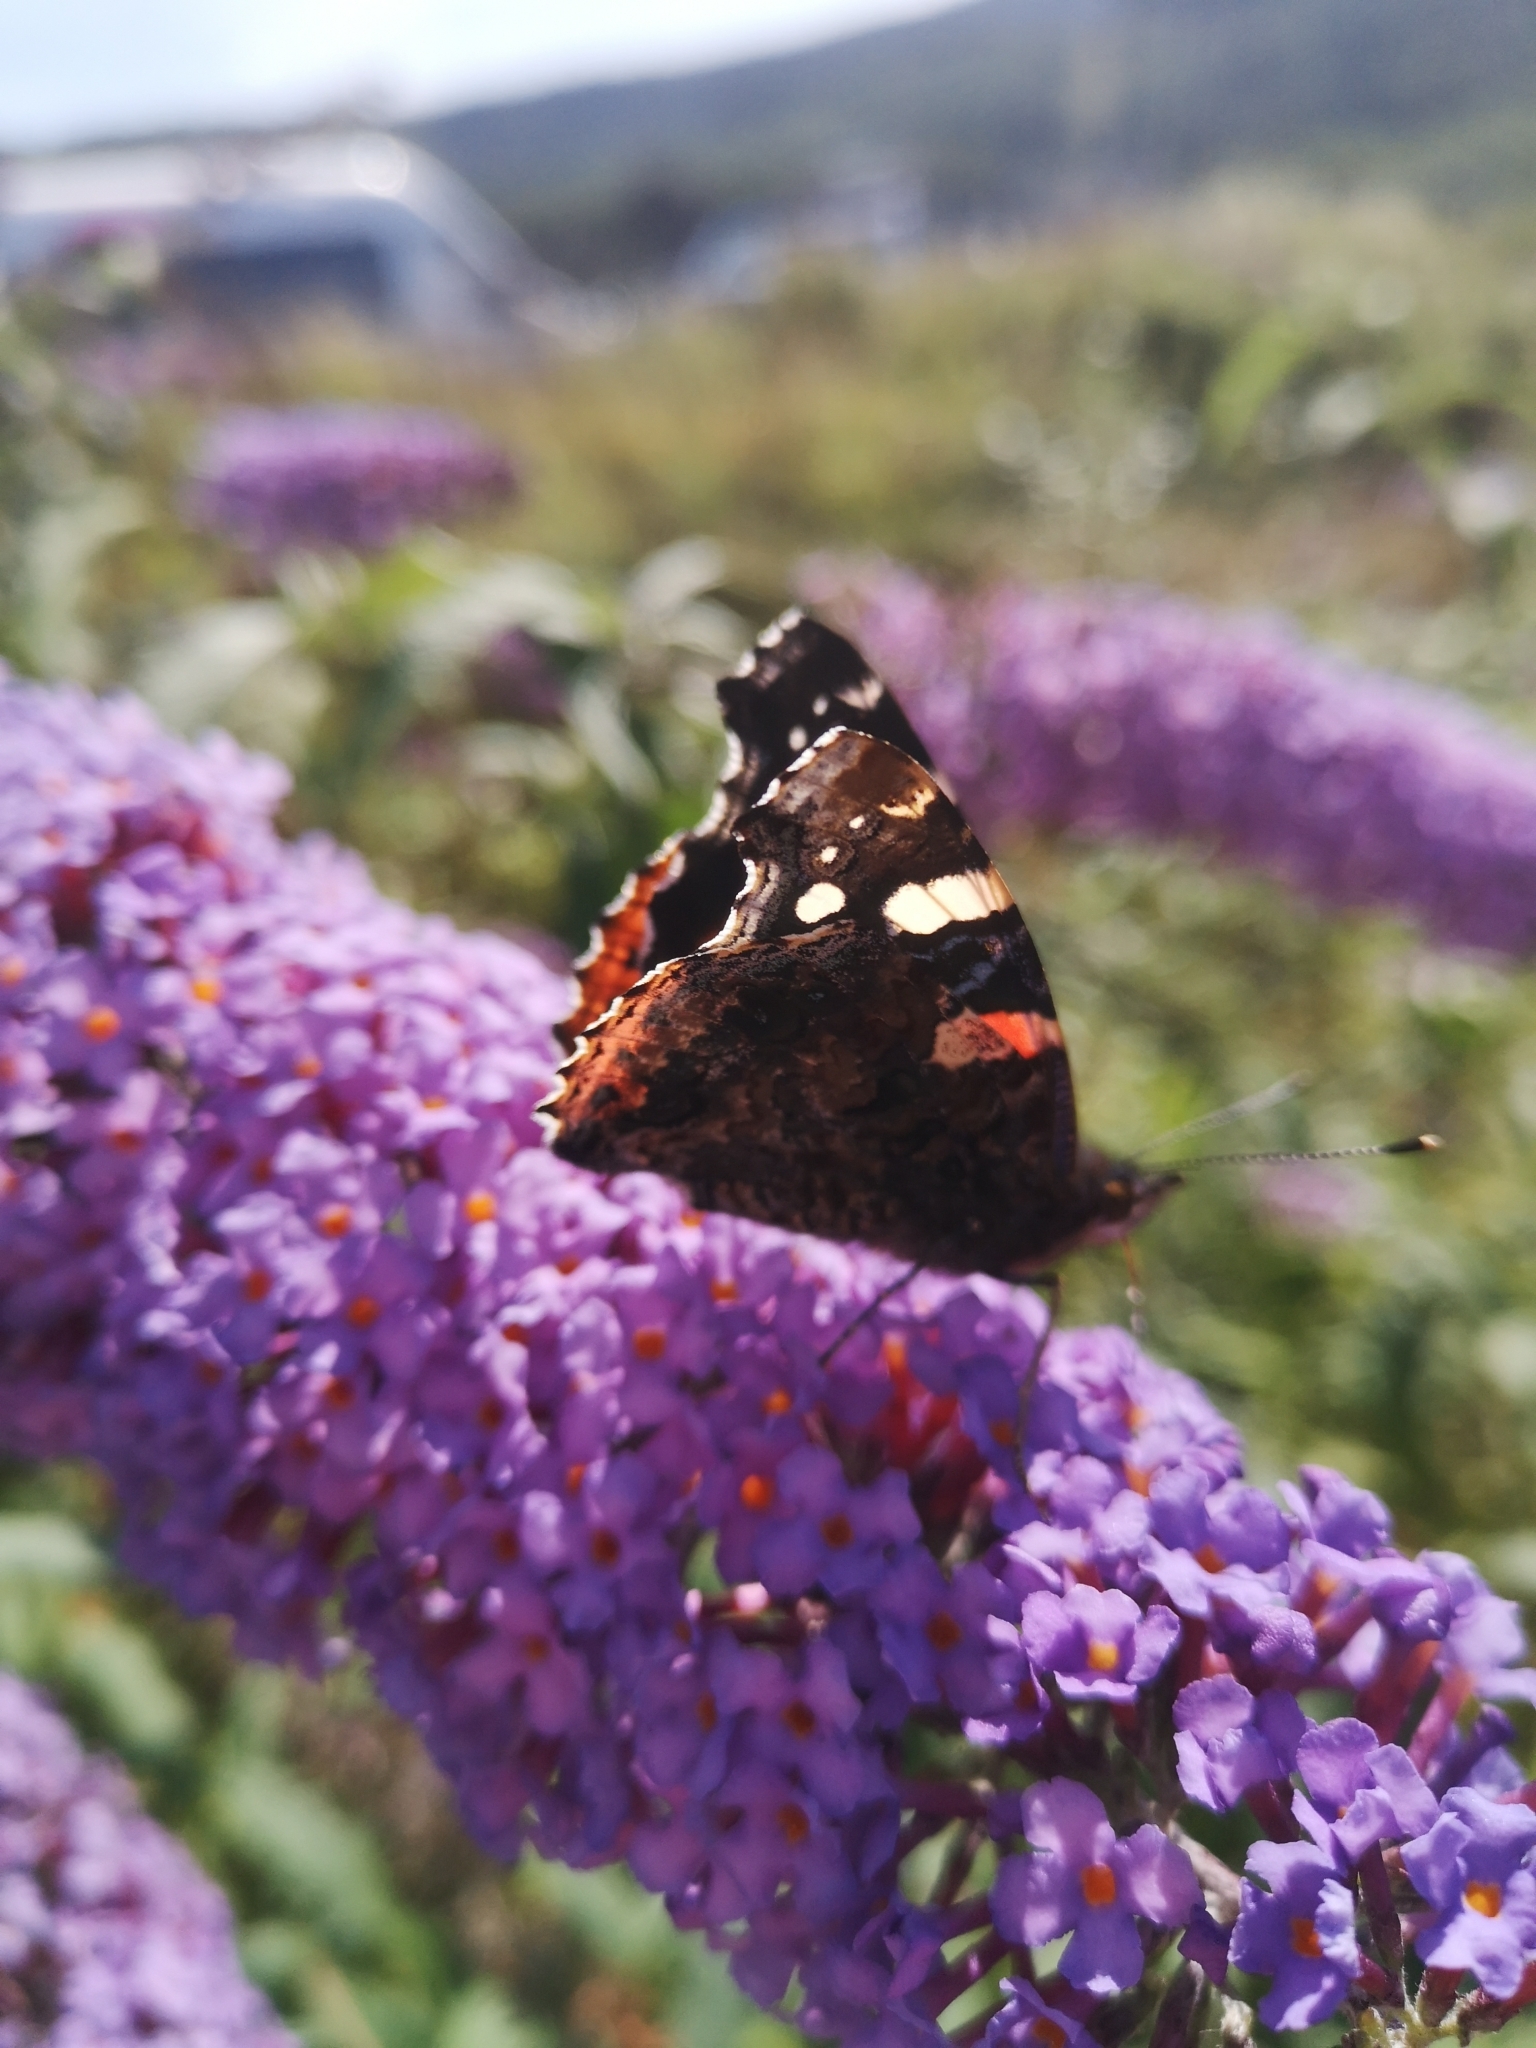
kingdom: Animalia
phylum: Arthropoda
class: Insecta
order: Lepidoptera
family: Nymphalidae
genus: Vanessa
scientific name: Vanessa atalanta
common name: Red admiral
